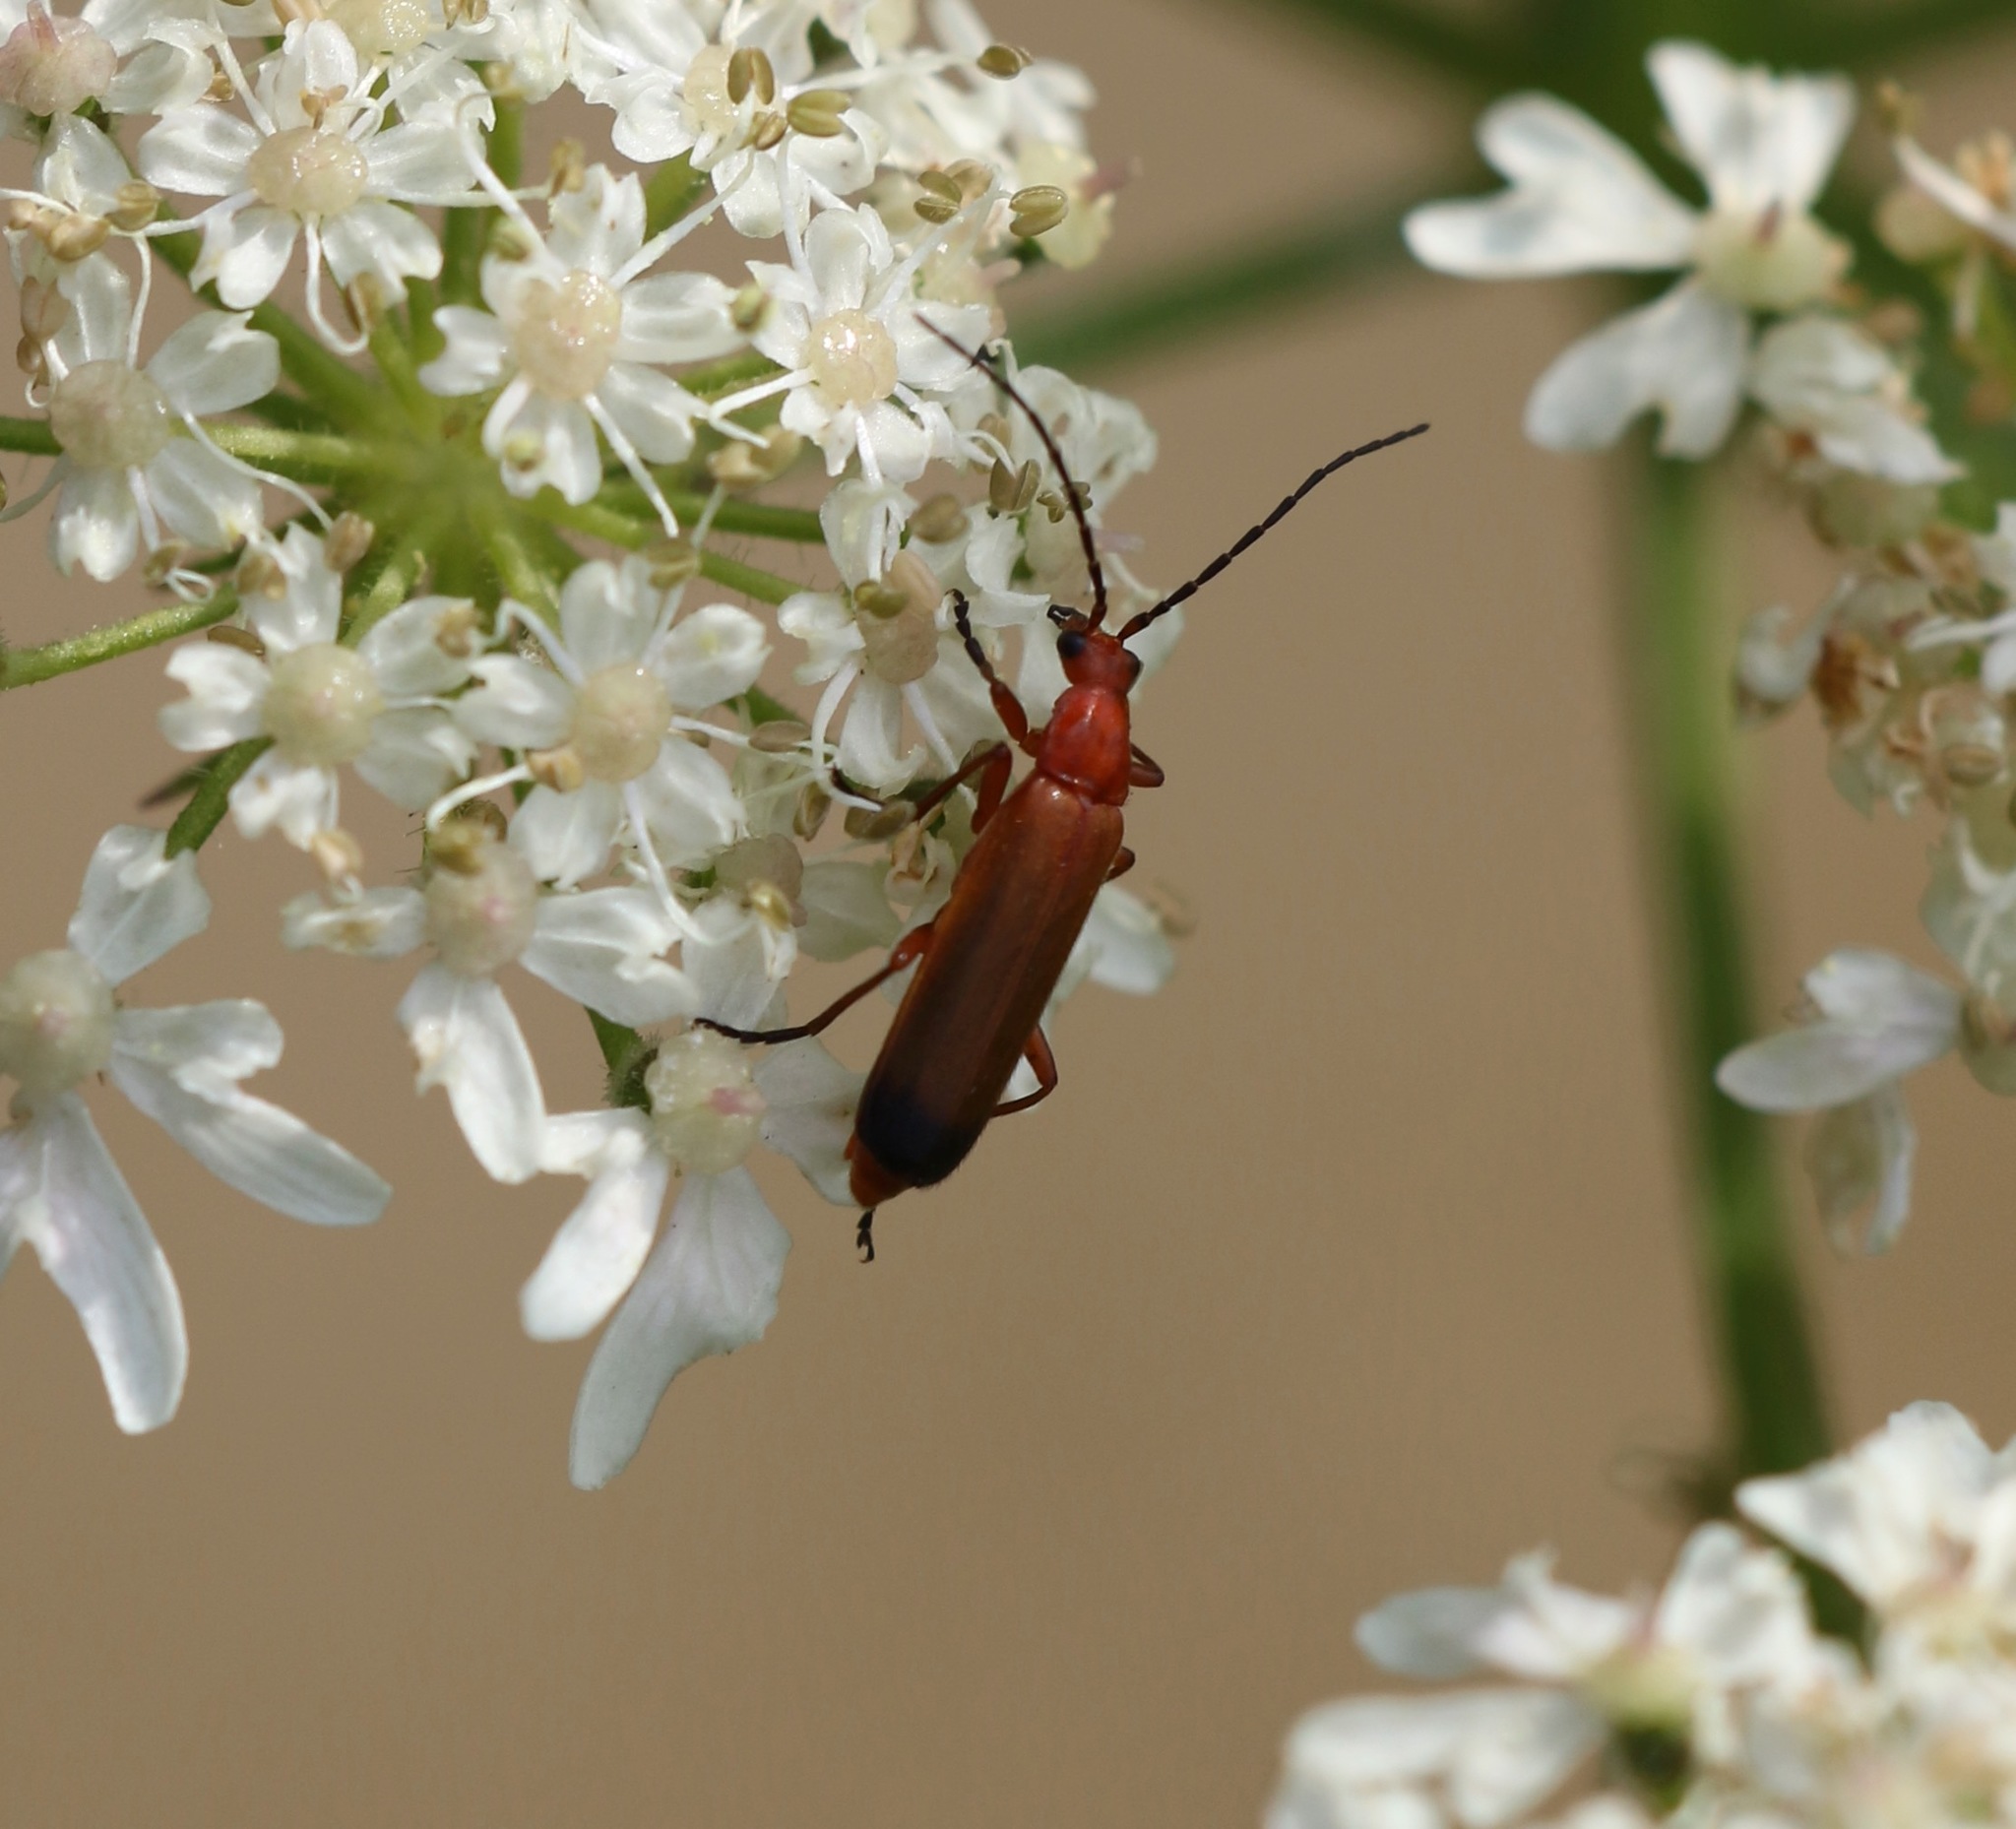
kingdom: Animalia
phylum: Arthropoda
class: Insecta
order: Coleoptera
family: Cantharidae
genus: Rhagonycha
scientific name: Rhagonycha fulva
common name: Common red soldier beetle
